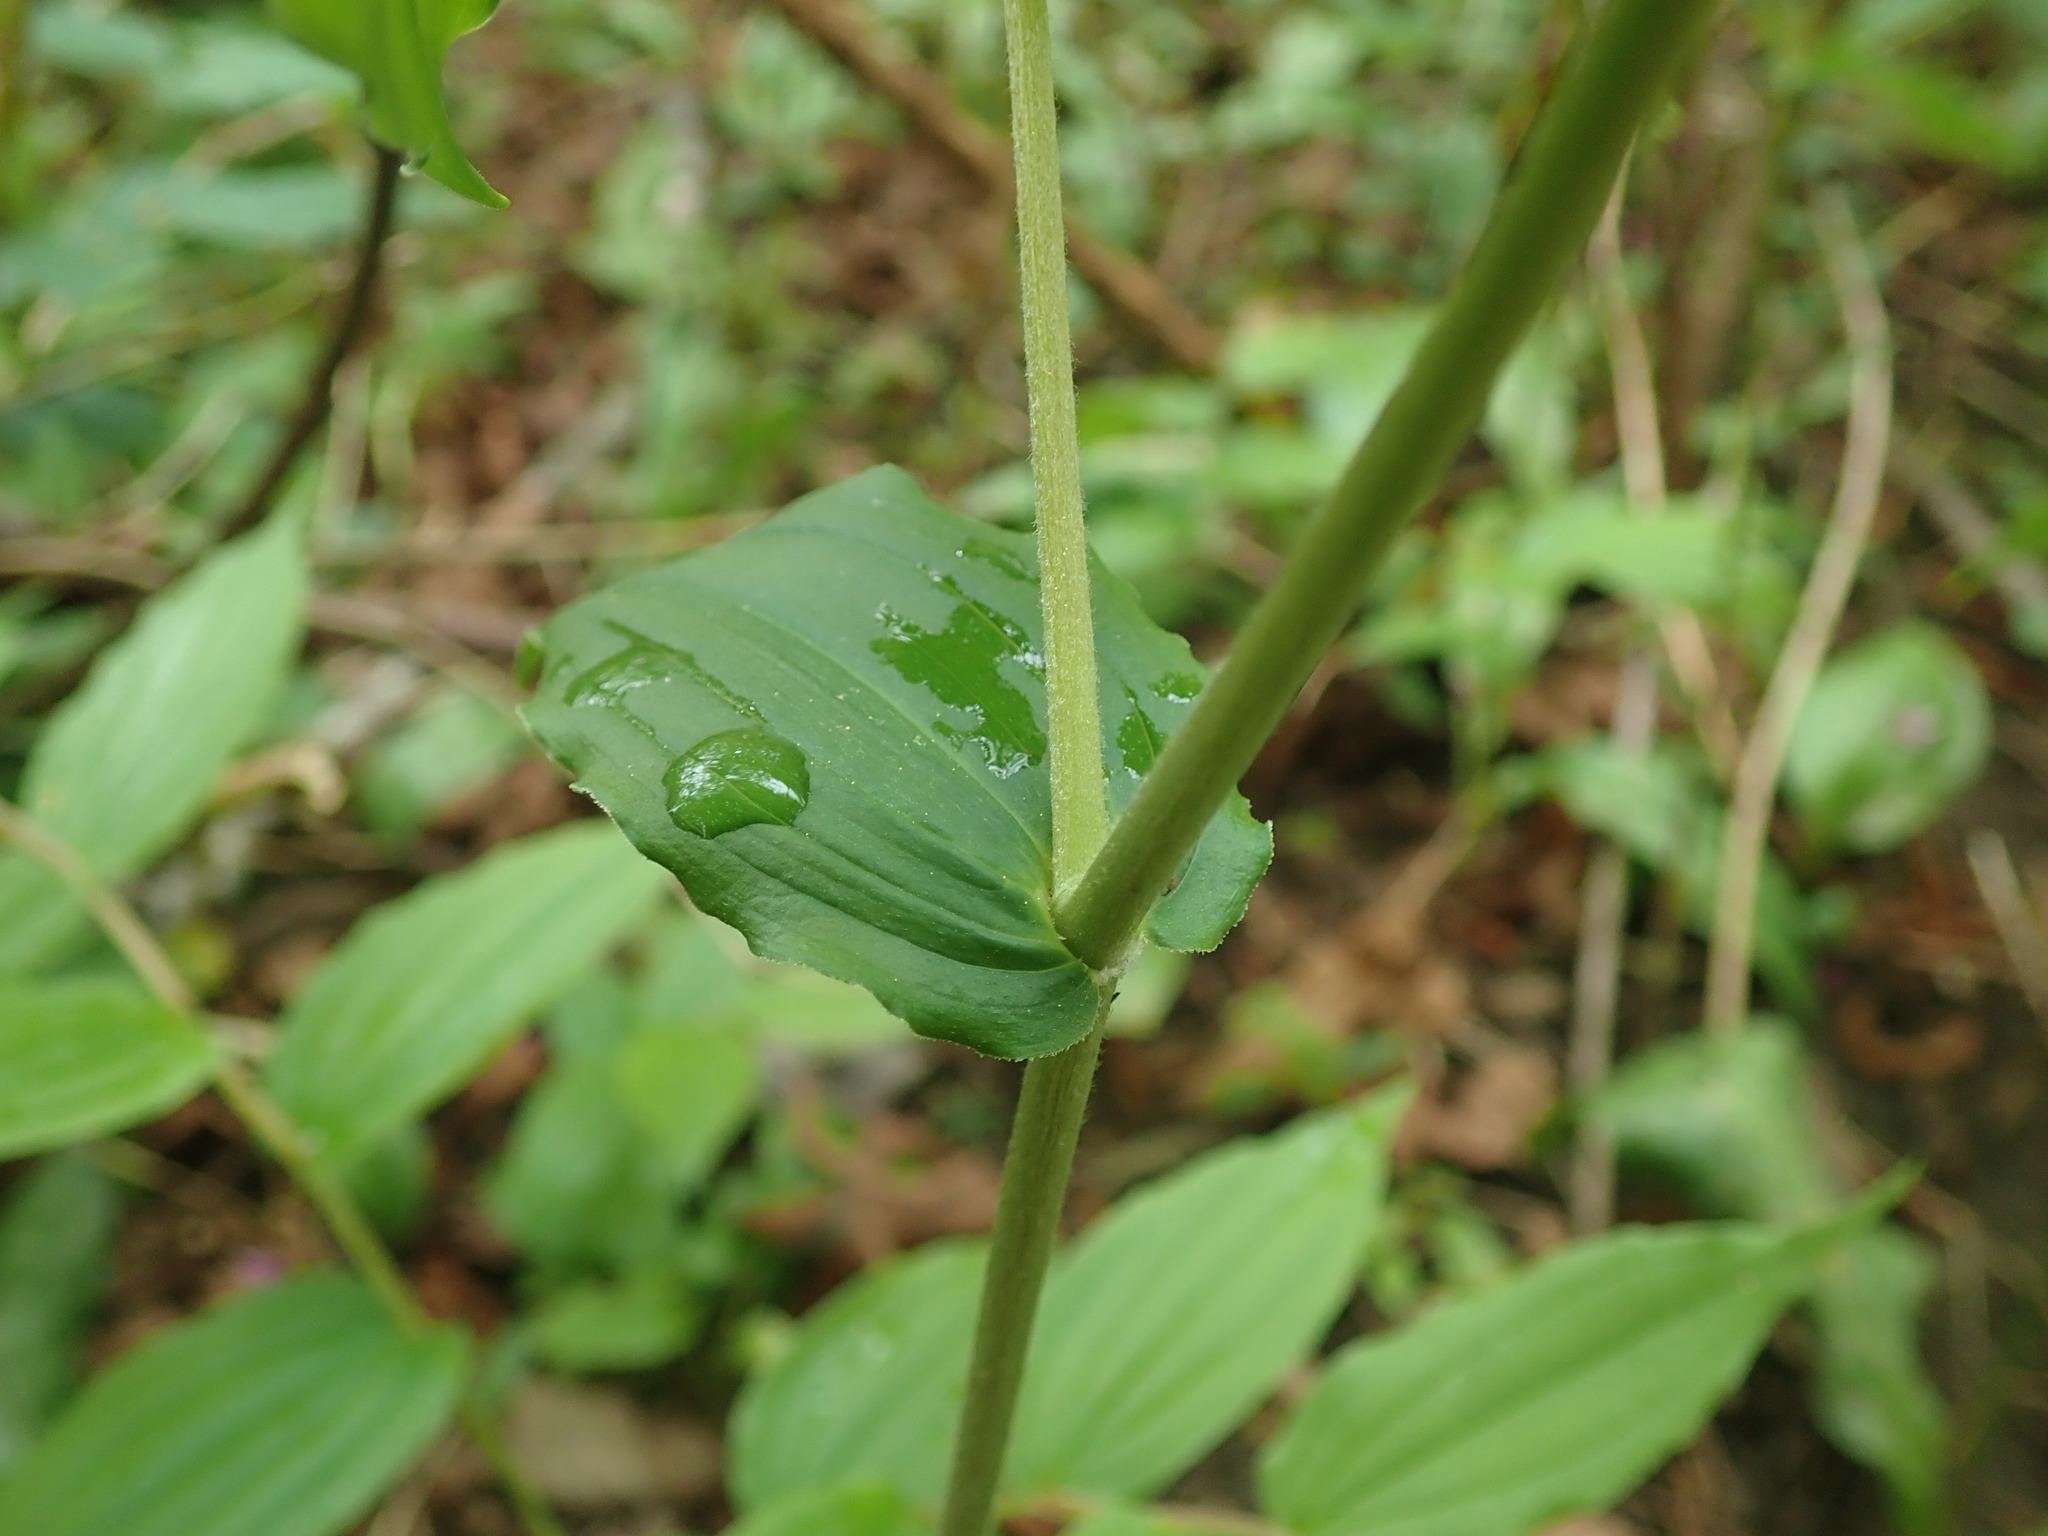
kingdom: Plantae
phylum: Tracheophyta
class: Liliopsida
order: Liliales
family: Liliaceae
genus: Prosartes
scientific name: Prosartes hookeri
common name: Fairy-bells
